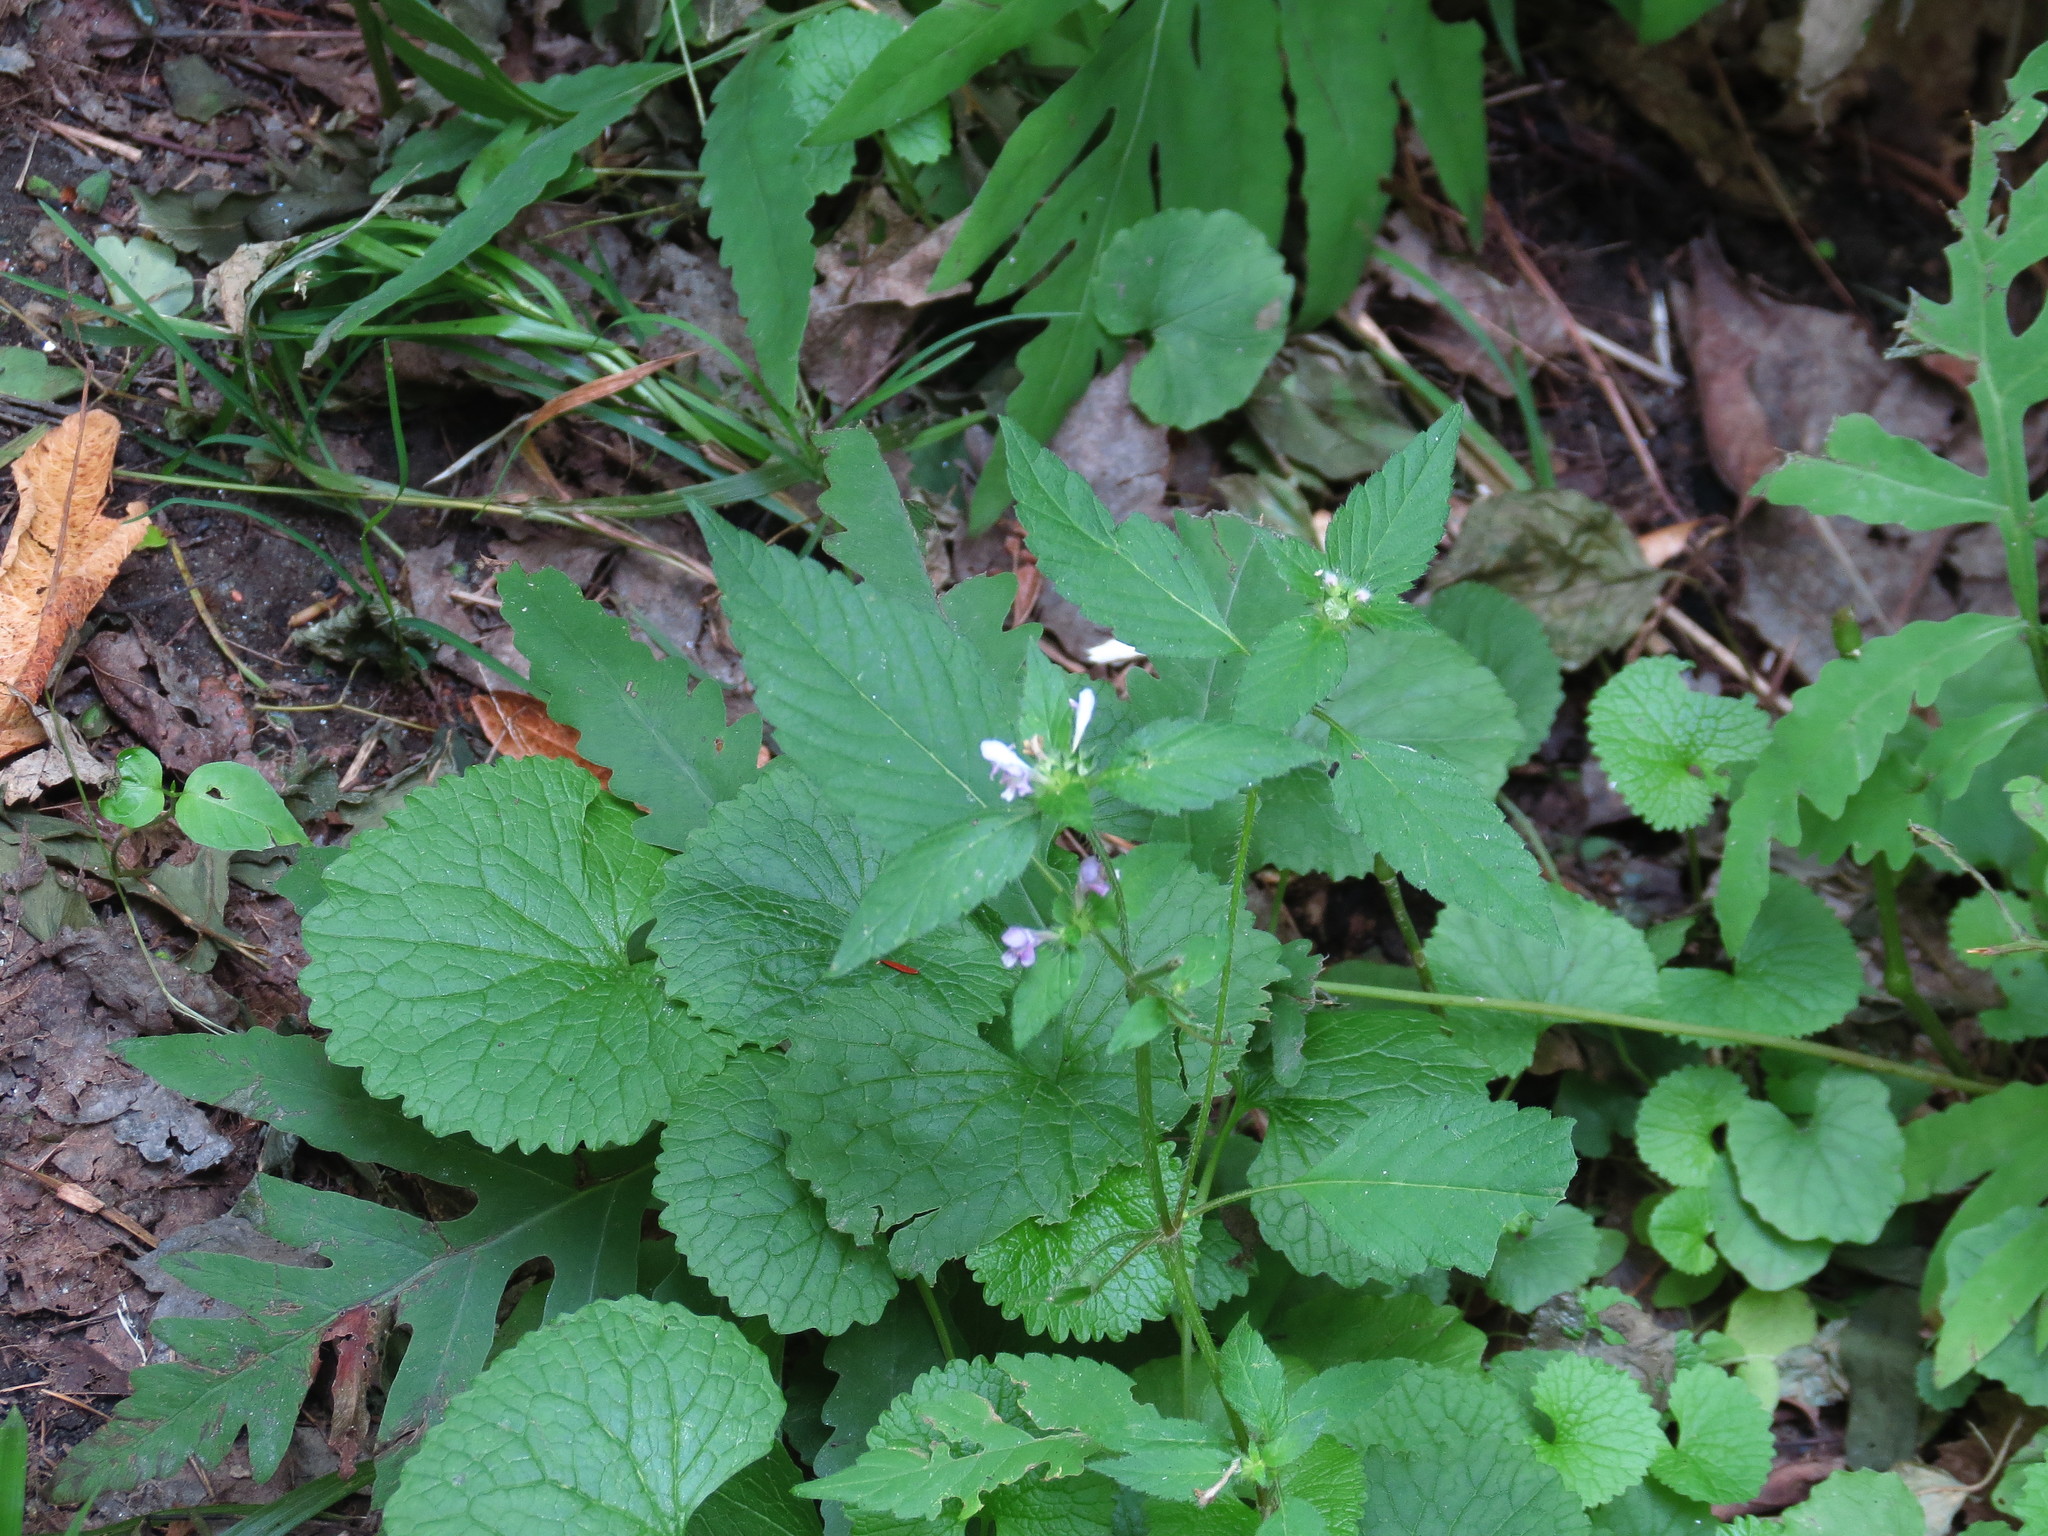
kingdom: Plantae
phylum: Tracheophyta
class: Magnoliopsida
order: Lamiales
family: Lamiaceae
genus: Galeopsis
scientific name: Galeopsis tetrahit
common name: Common hemp-nettle
